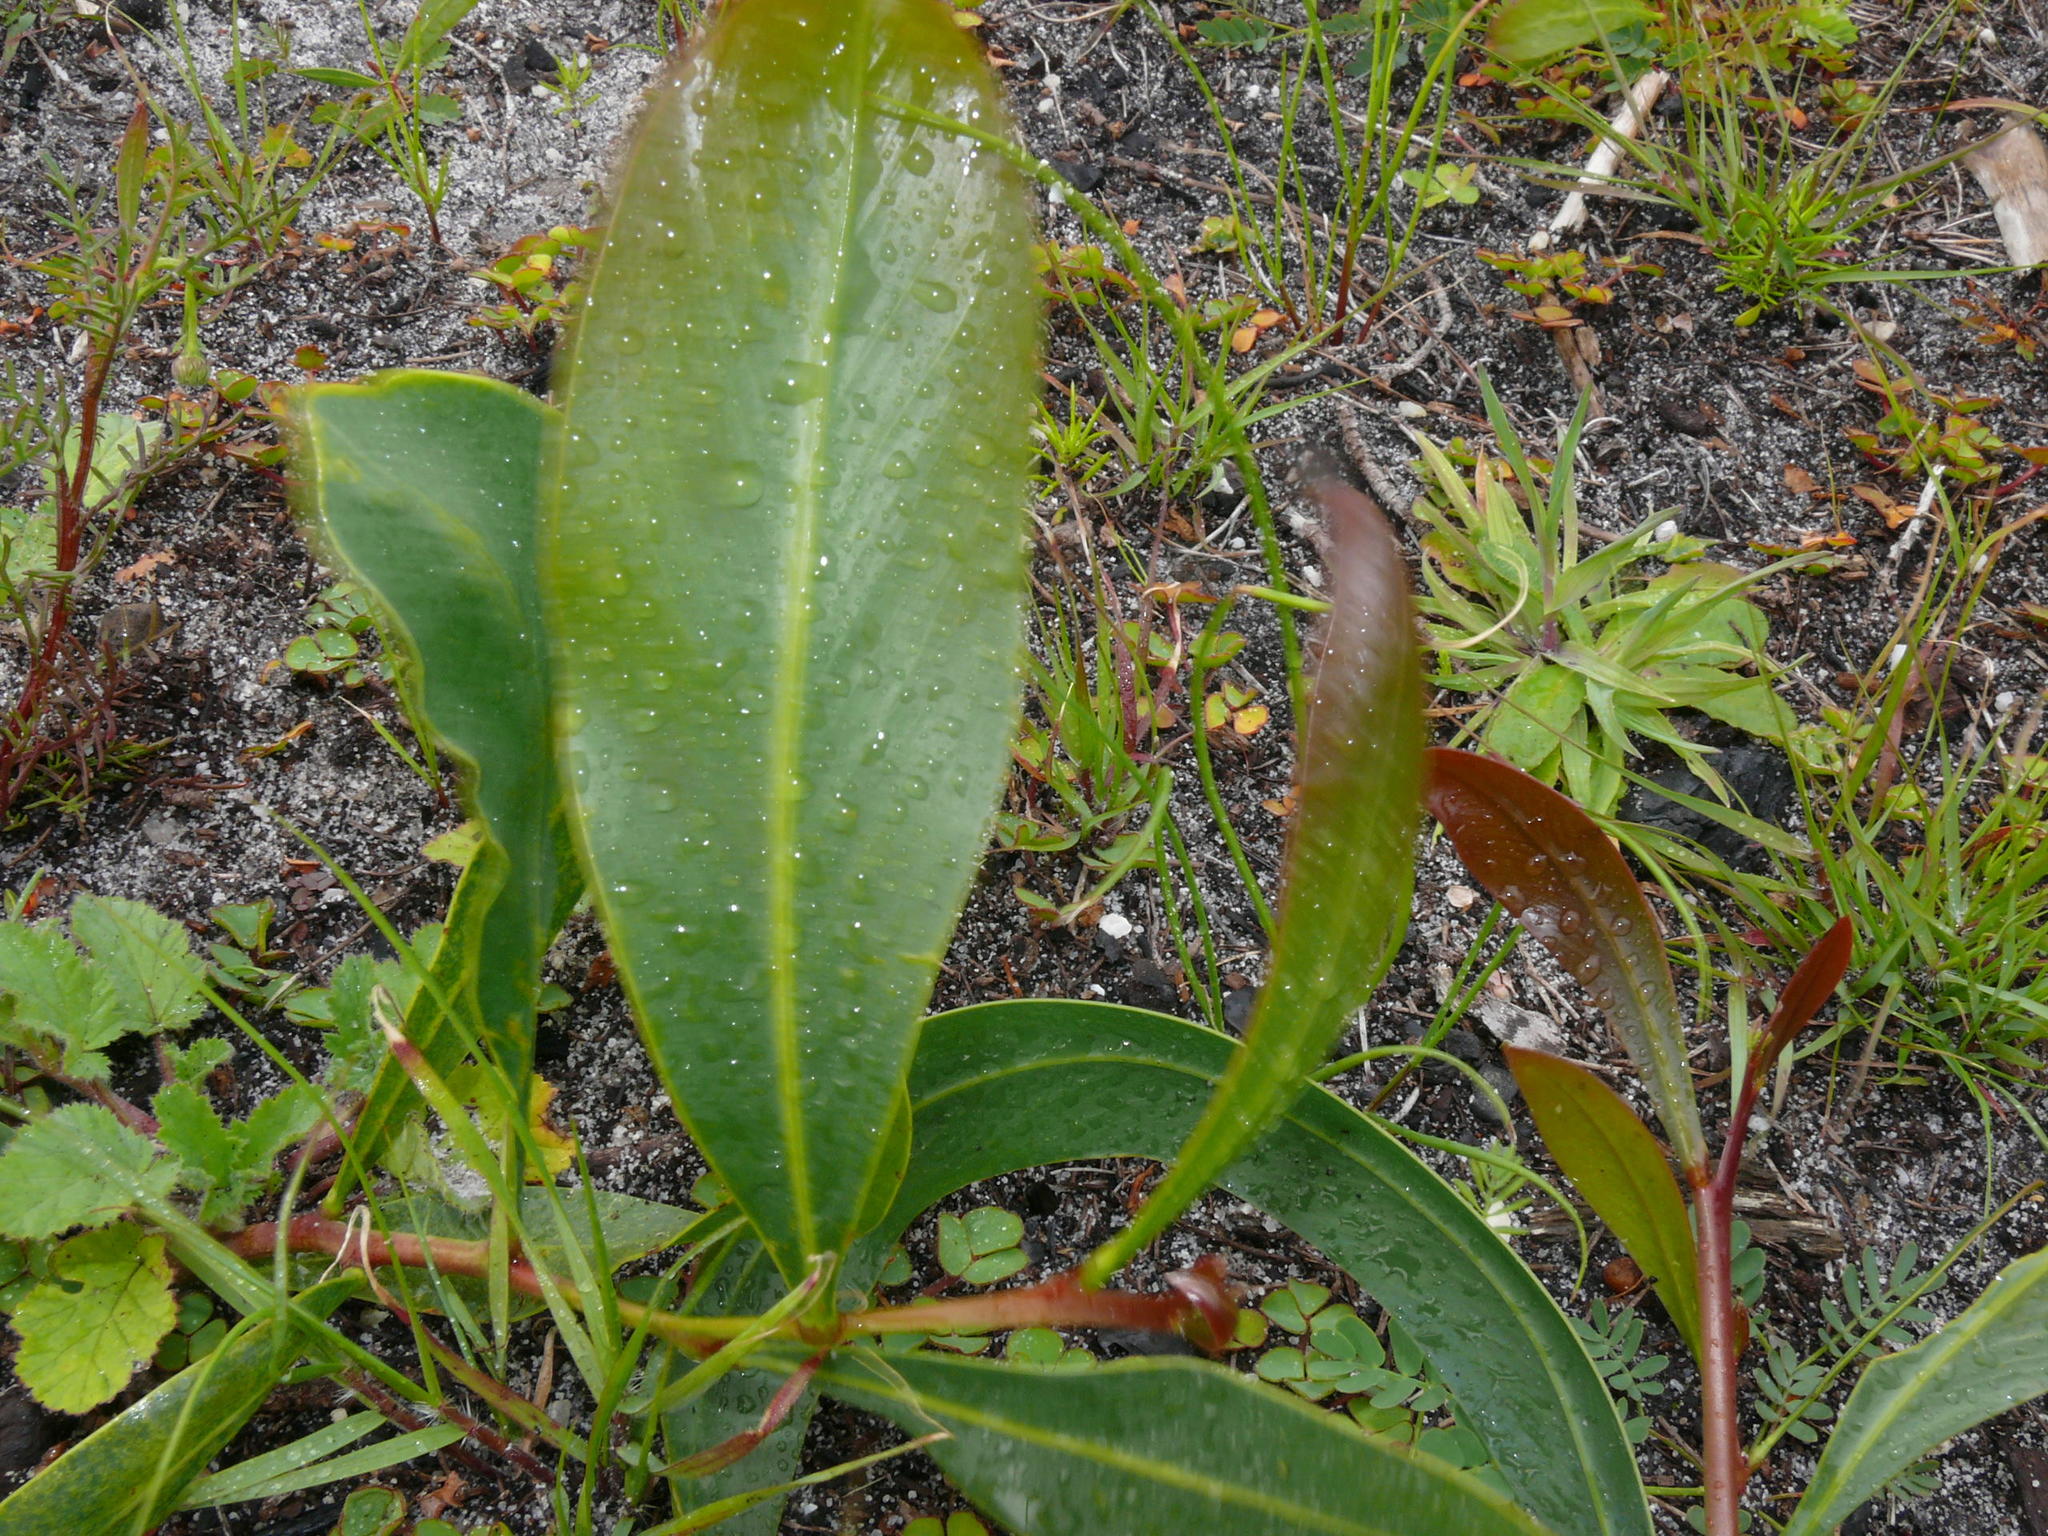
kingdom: Plantae
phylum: Tracheophyta
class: Magnoliopsida
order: Fabales
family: Fabaceae
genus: Acacia
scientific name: Acacia saligna
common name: Orange wattle
